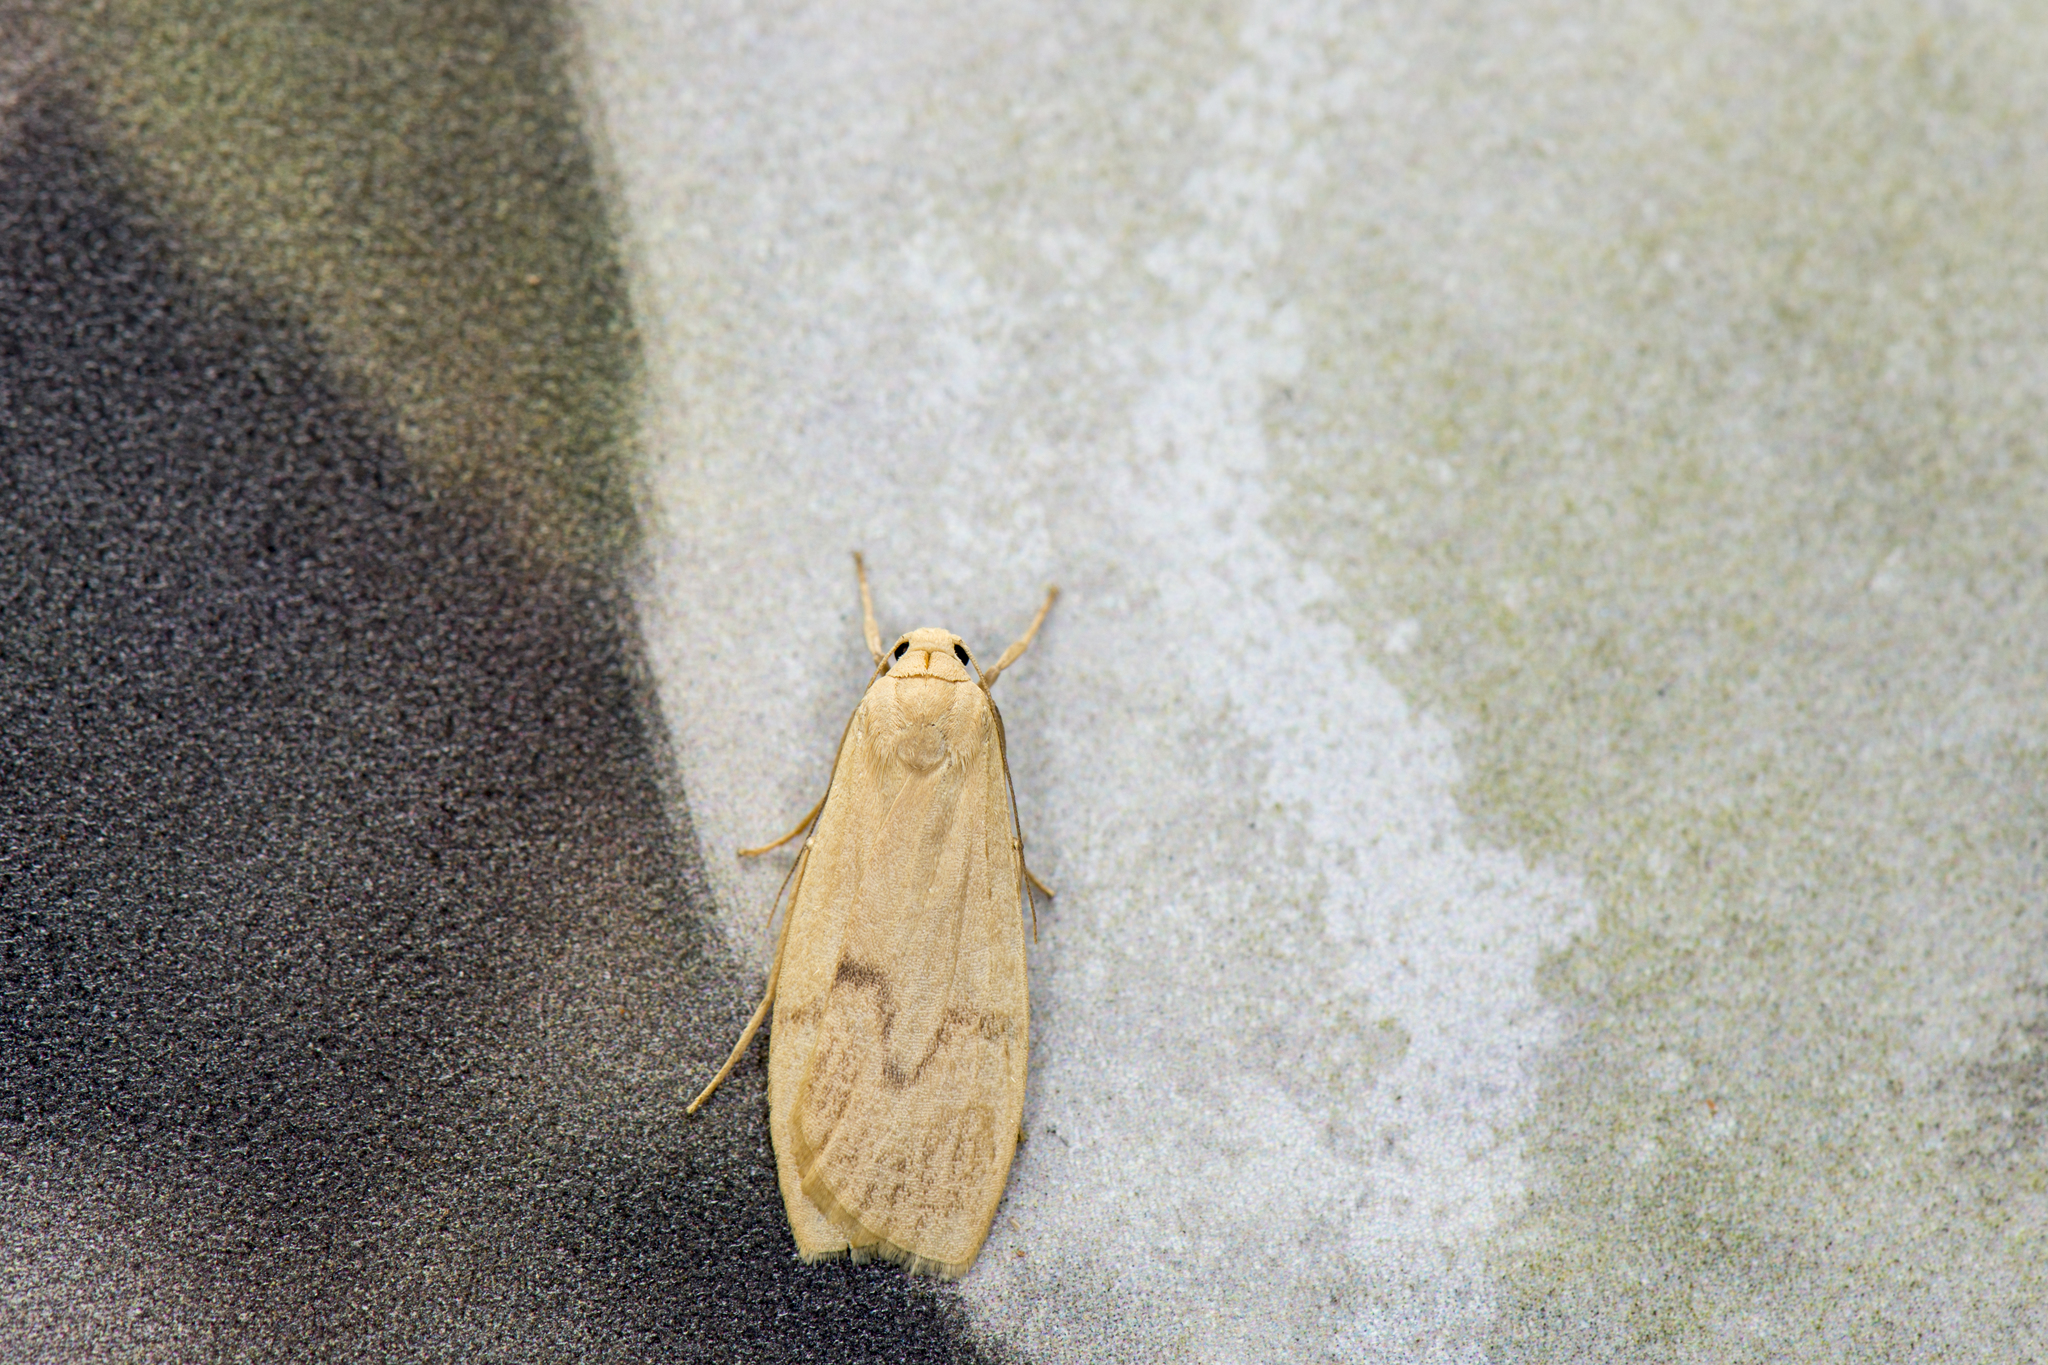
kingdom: Animalia
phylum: Arthropoda
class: Insecta
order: Lepidoptera
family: Erebidae
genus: Teuloma
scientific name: Teuloma tainebula
